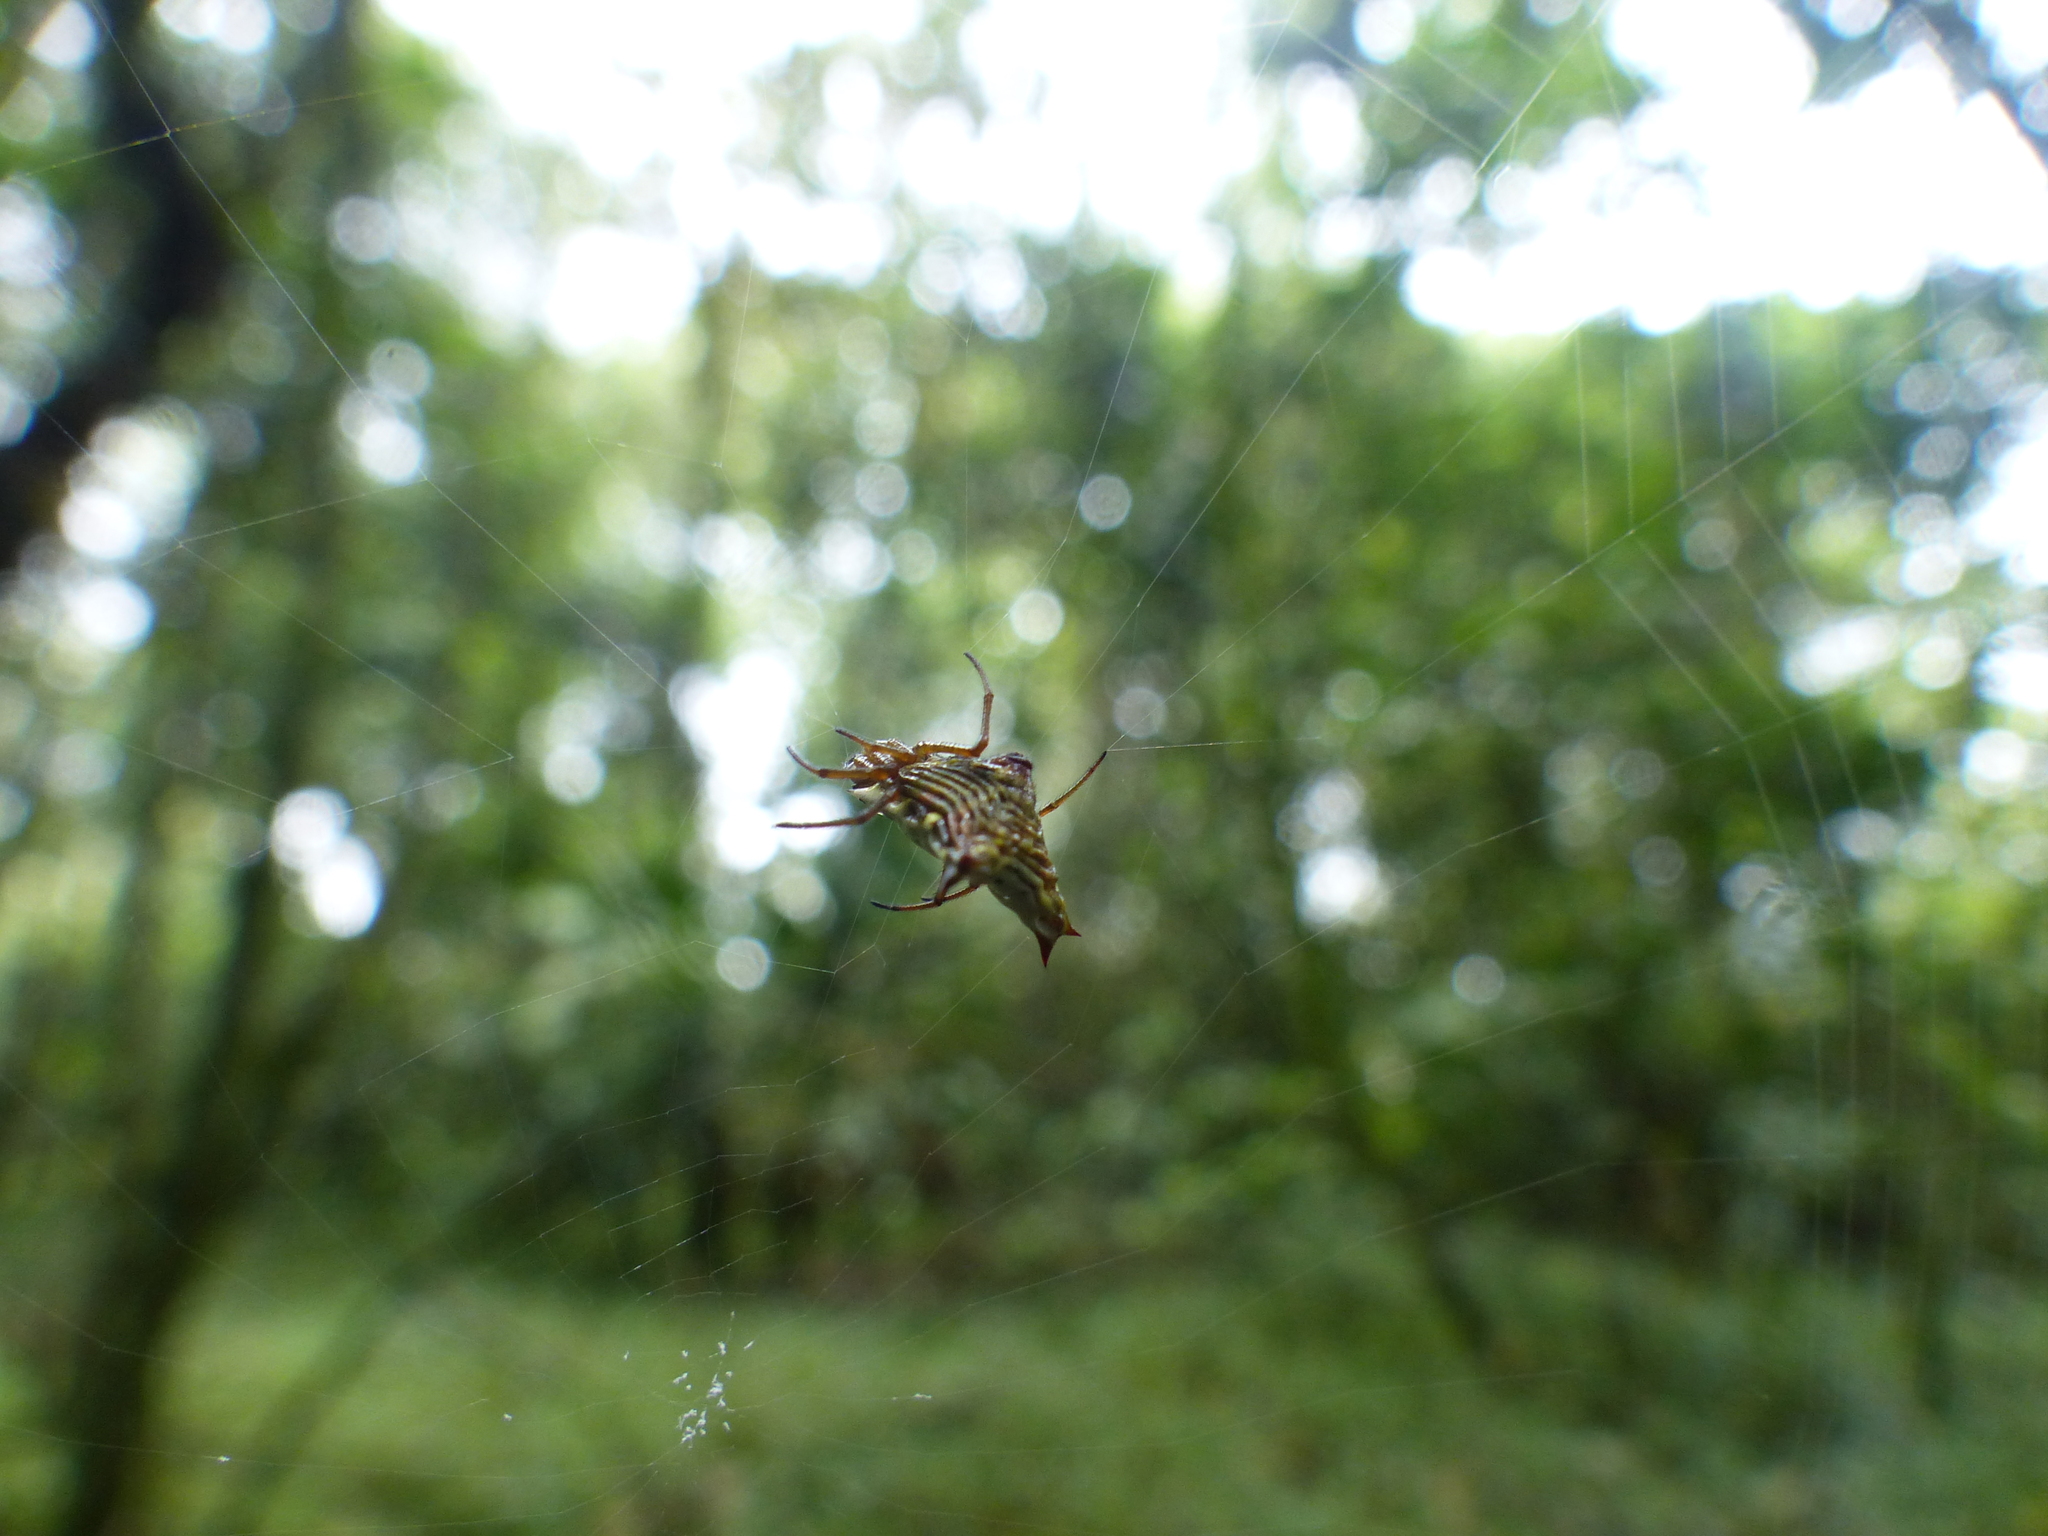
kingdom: Animalia
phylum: Arthropoda
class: Arachnida
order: Araneae
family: Araneidae
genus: Micrathena
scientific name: Micrathena lucasi
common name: Orb weavers
